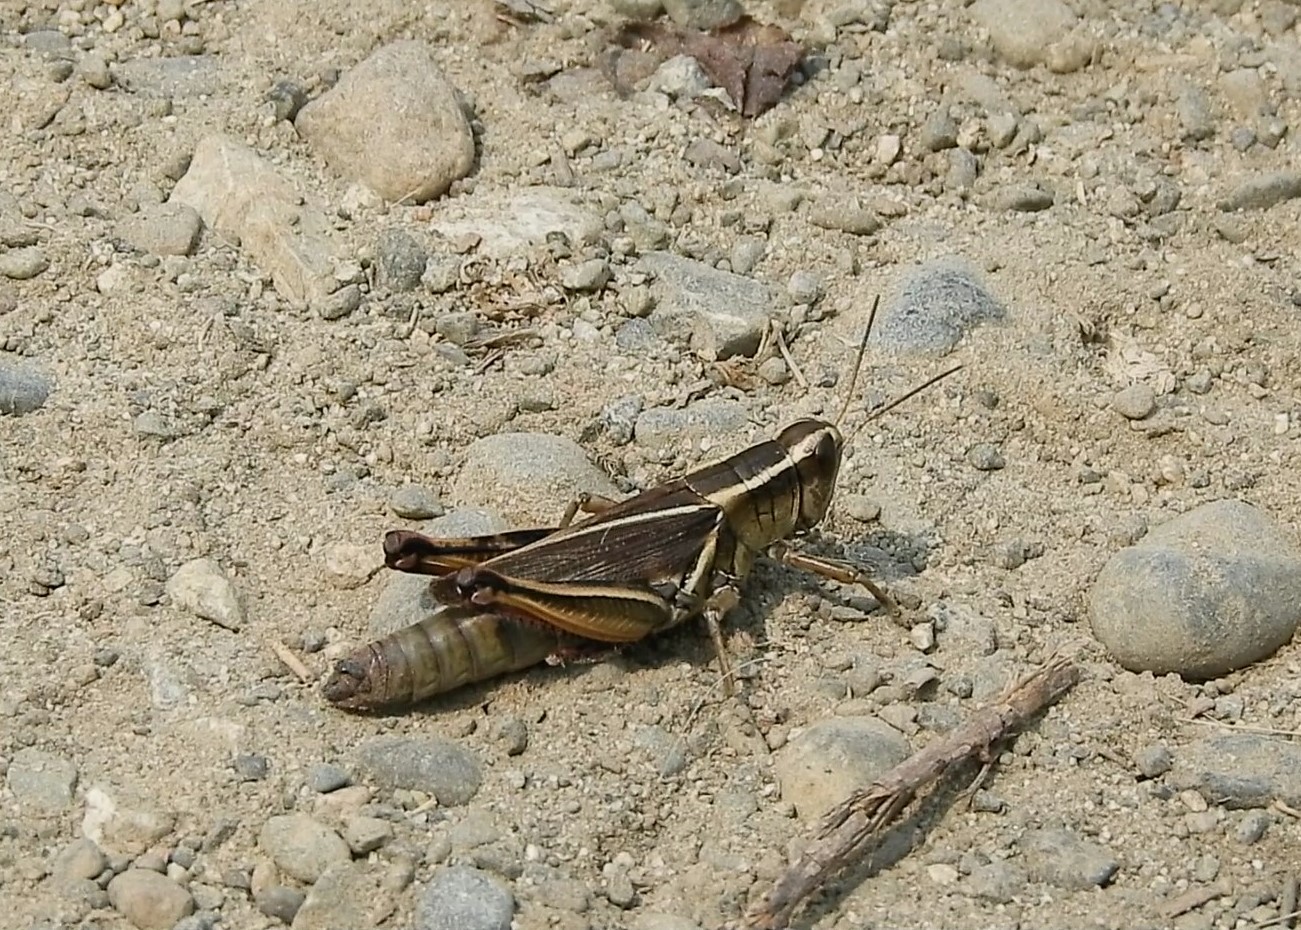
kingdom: Animalia
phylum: Arthropoda
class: Insecta
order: Orthoptera
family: Acrididae
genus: Melanoplus
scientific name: Melanoplus bivittatus
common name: Two-striped grasshopper
